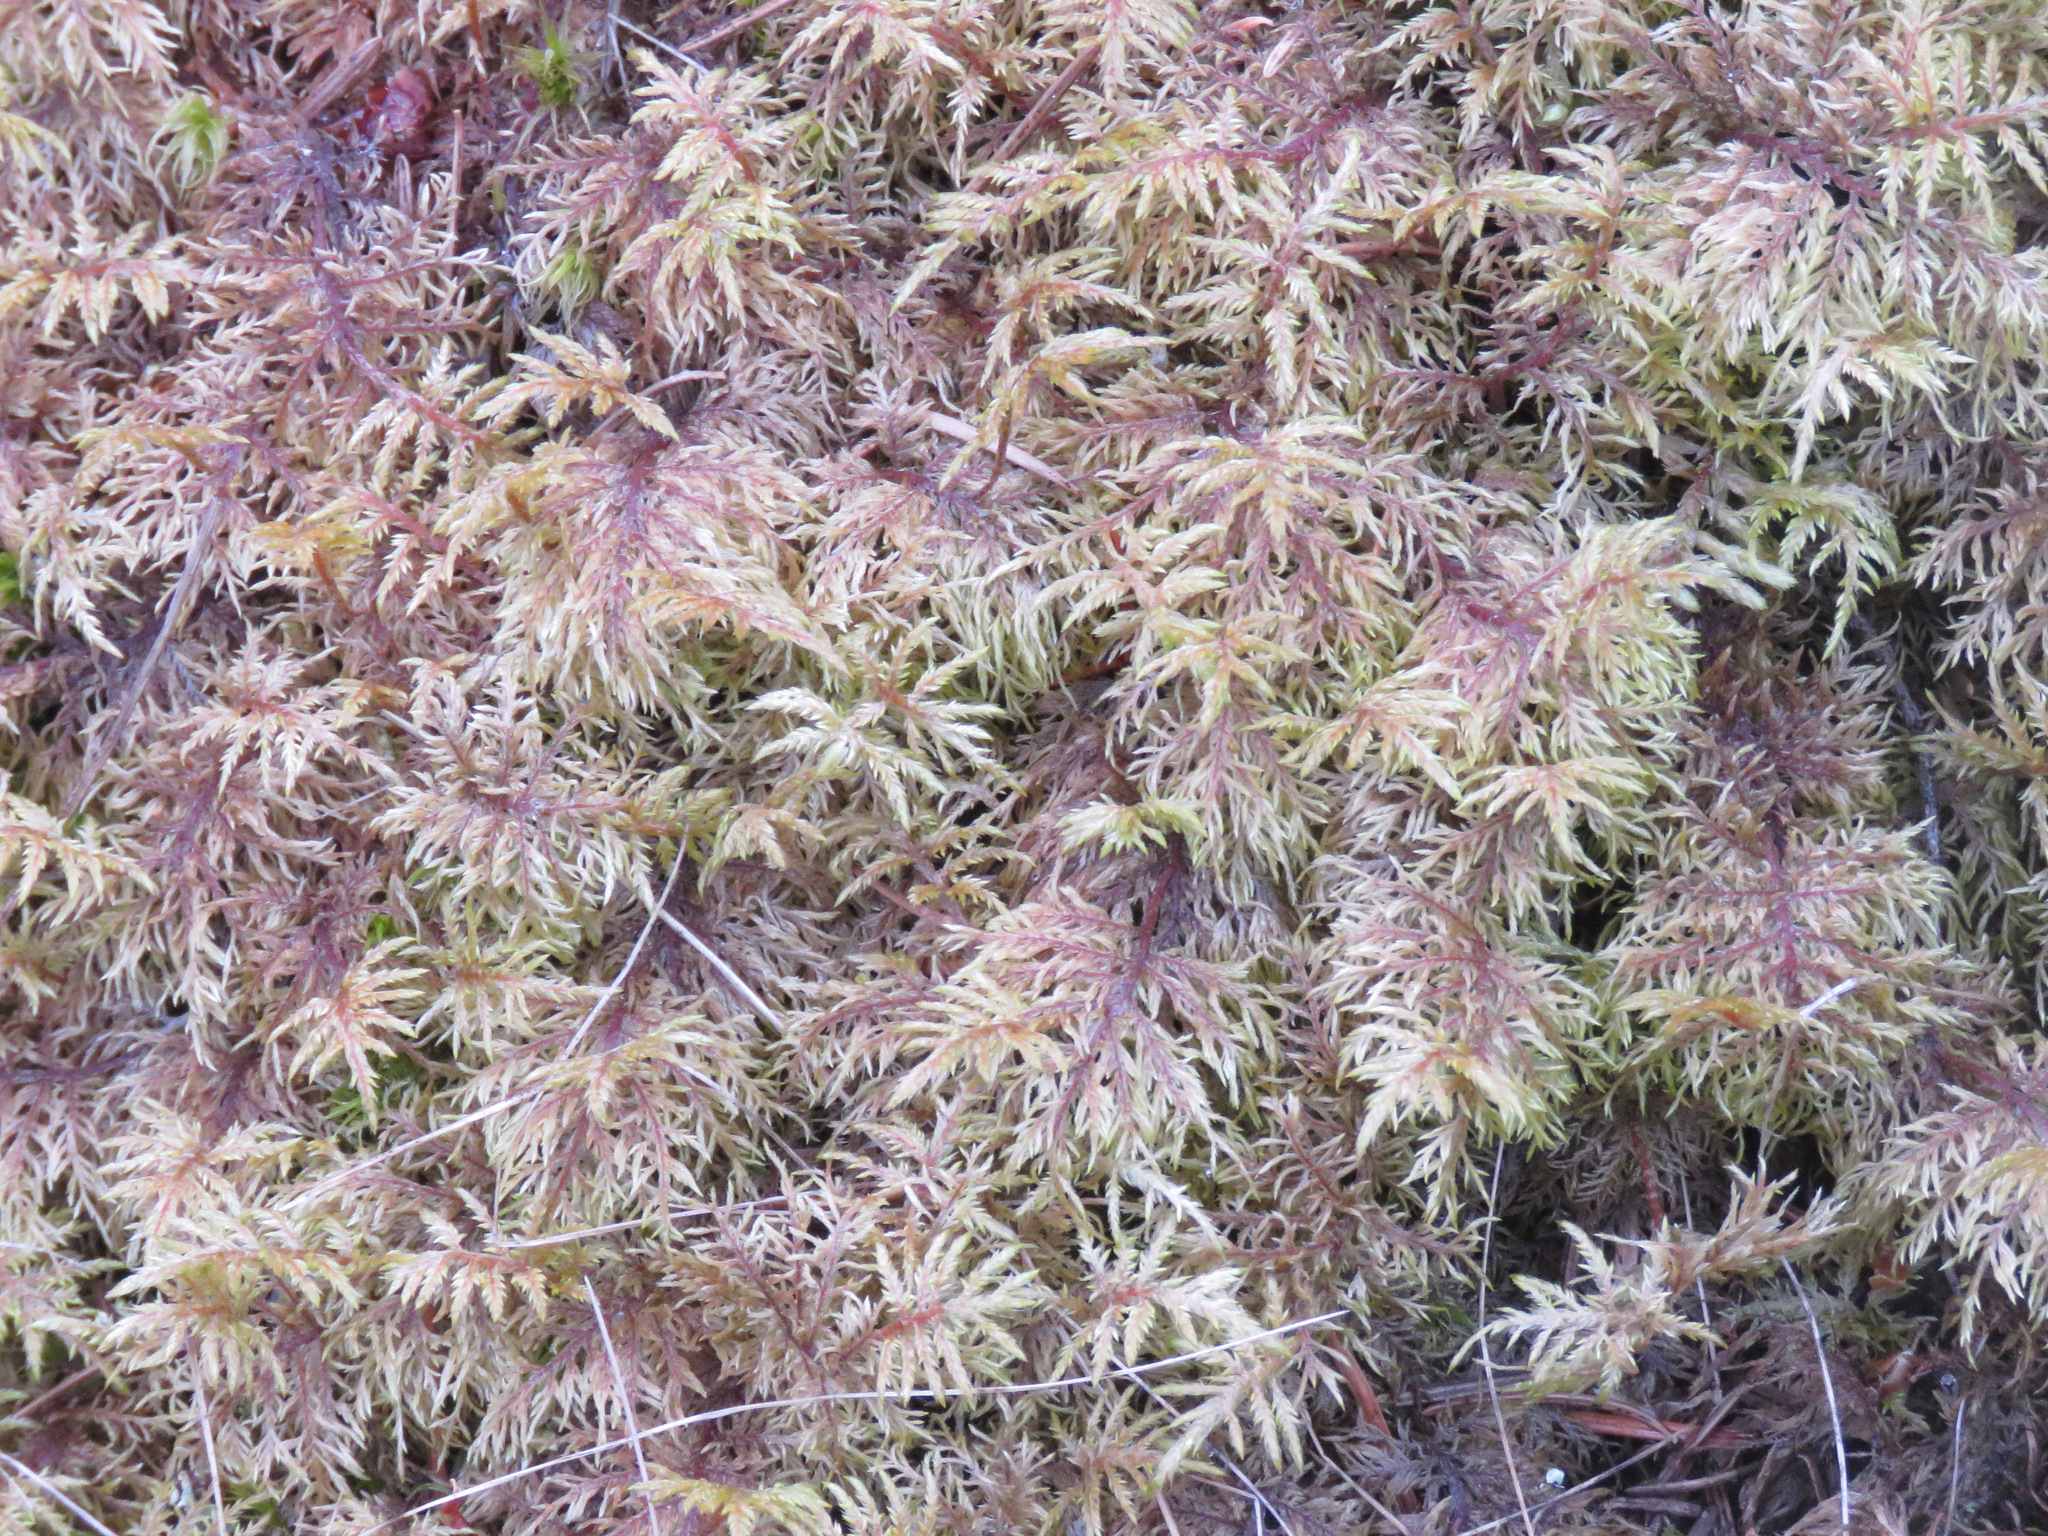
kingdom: Plantae
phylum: Bryophyta
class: Bryopsida
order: Hypnales
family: Hylocomiaceae
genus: Hylocomium
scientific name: Hylocomium splendens
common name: Stairstep moss
